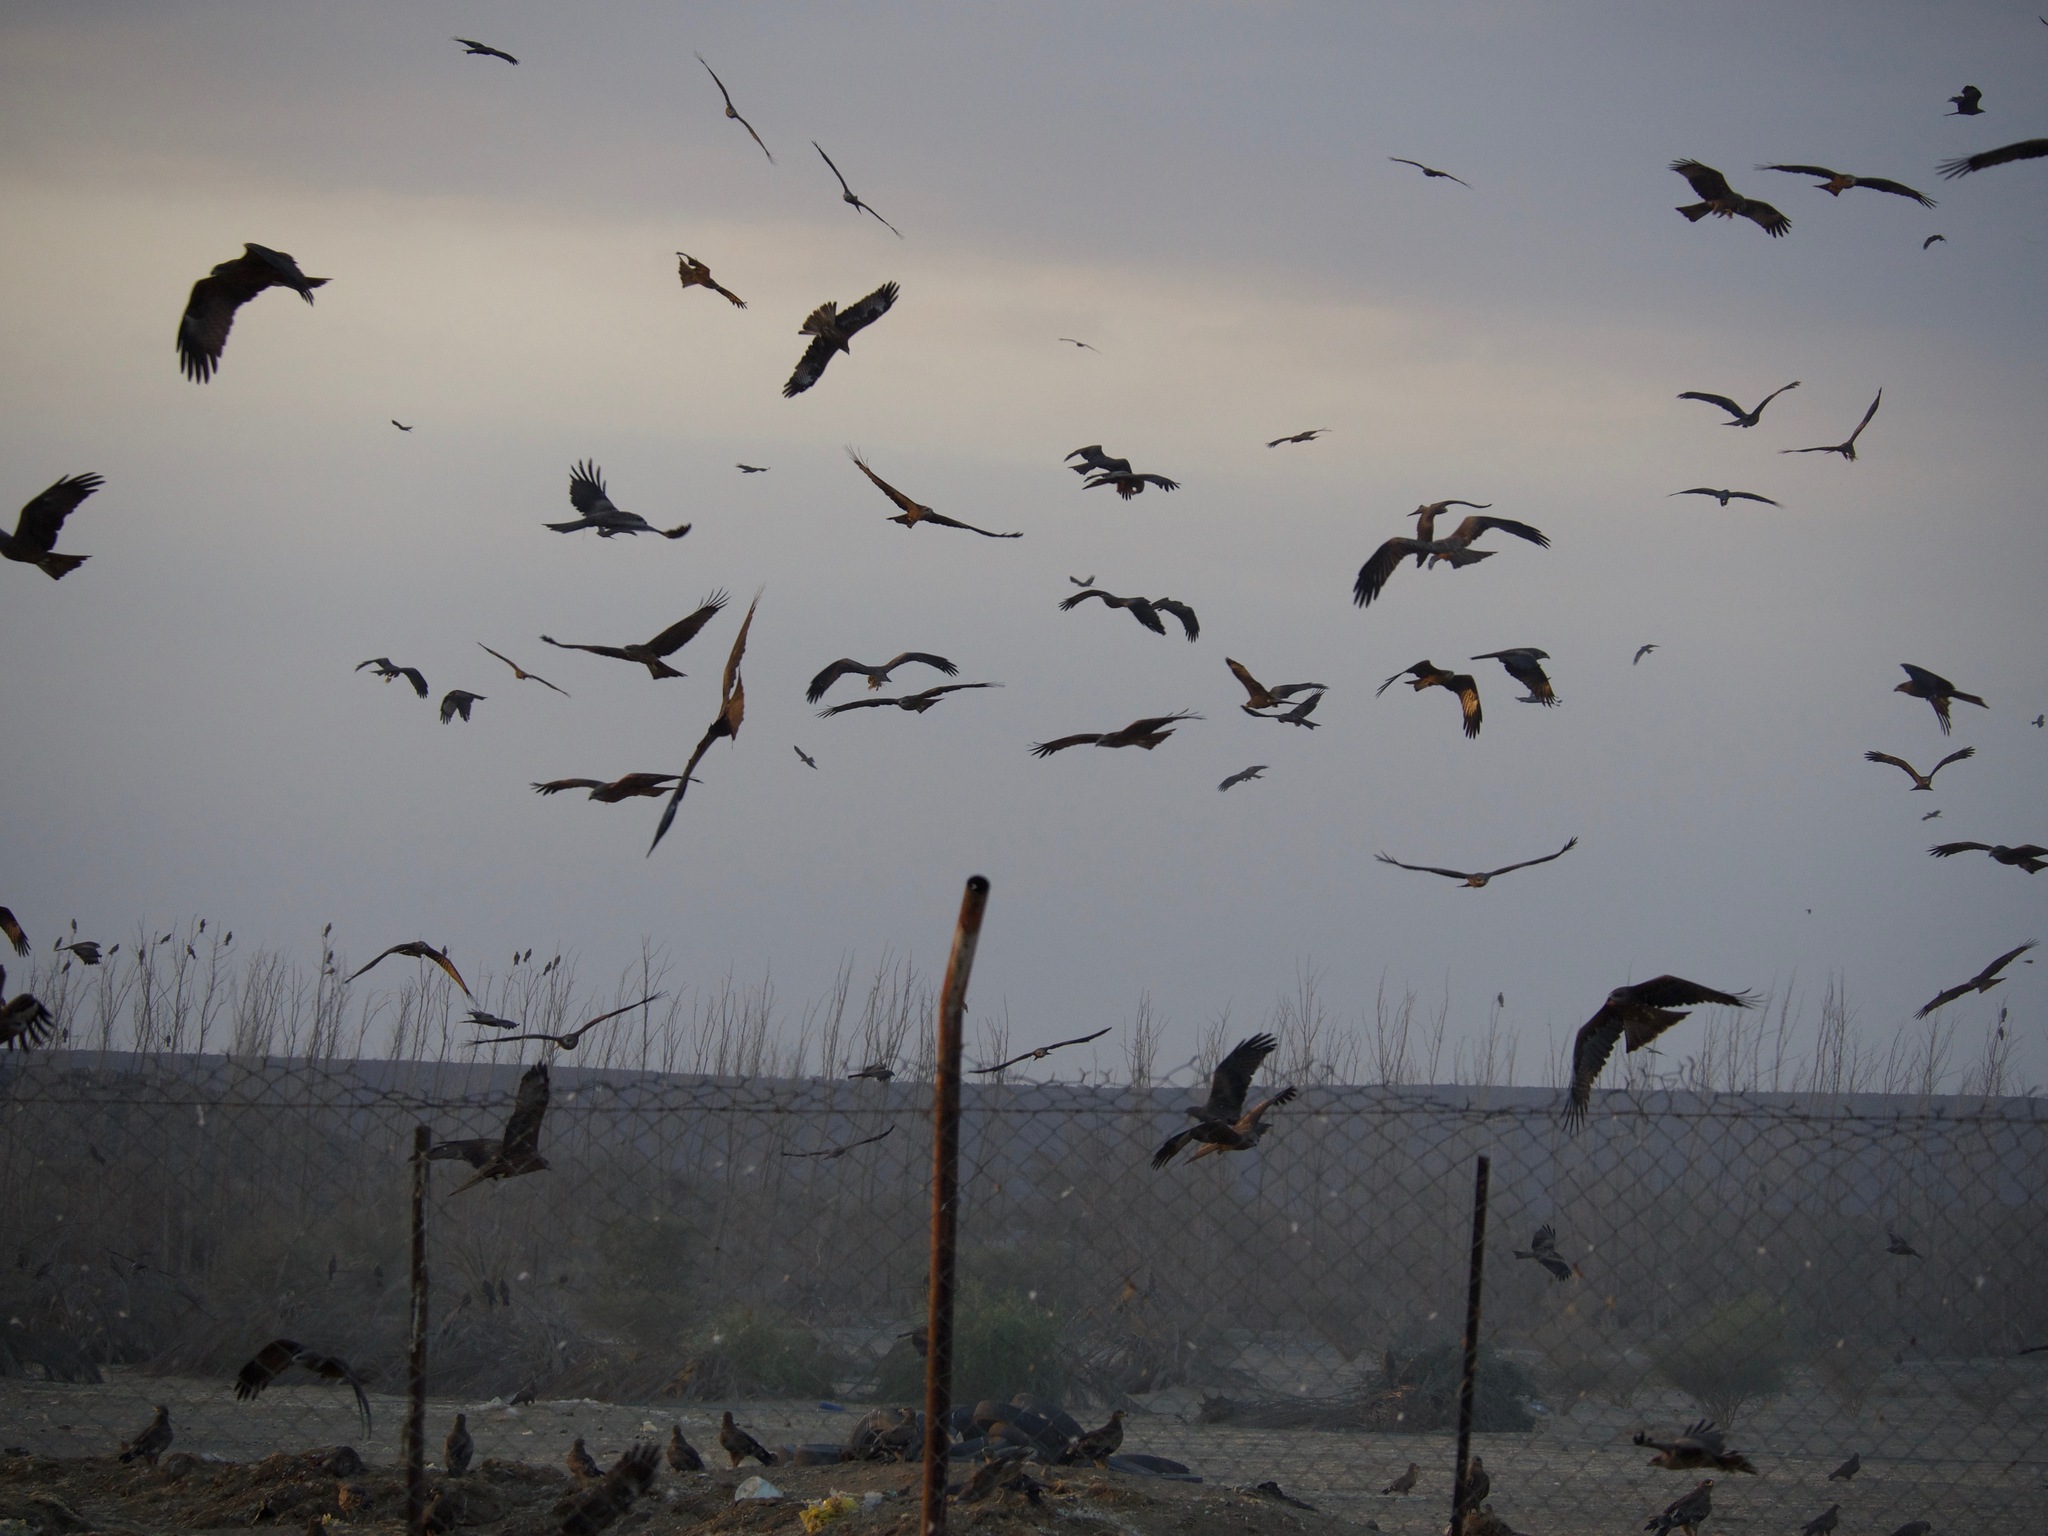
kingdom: Animalia
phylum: Chordata
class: Aves
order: Accipitriformes
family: Accipitridae
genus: Aquila
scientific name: Aquila nipalensis
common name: Steppe eagle
